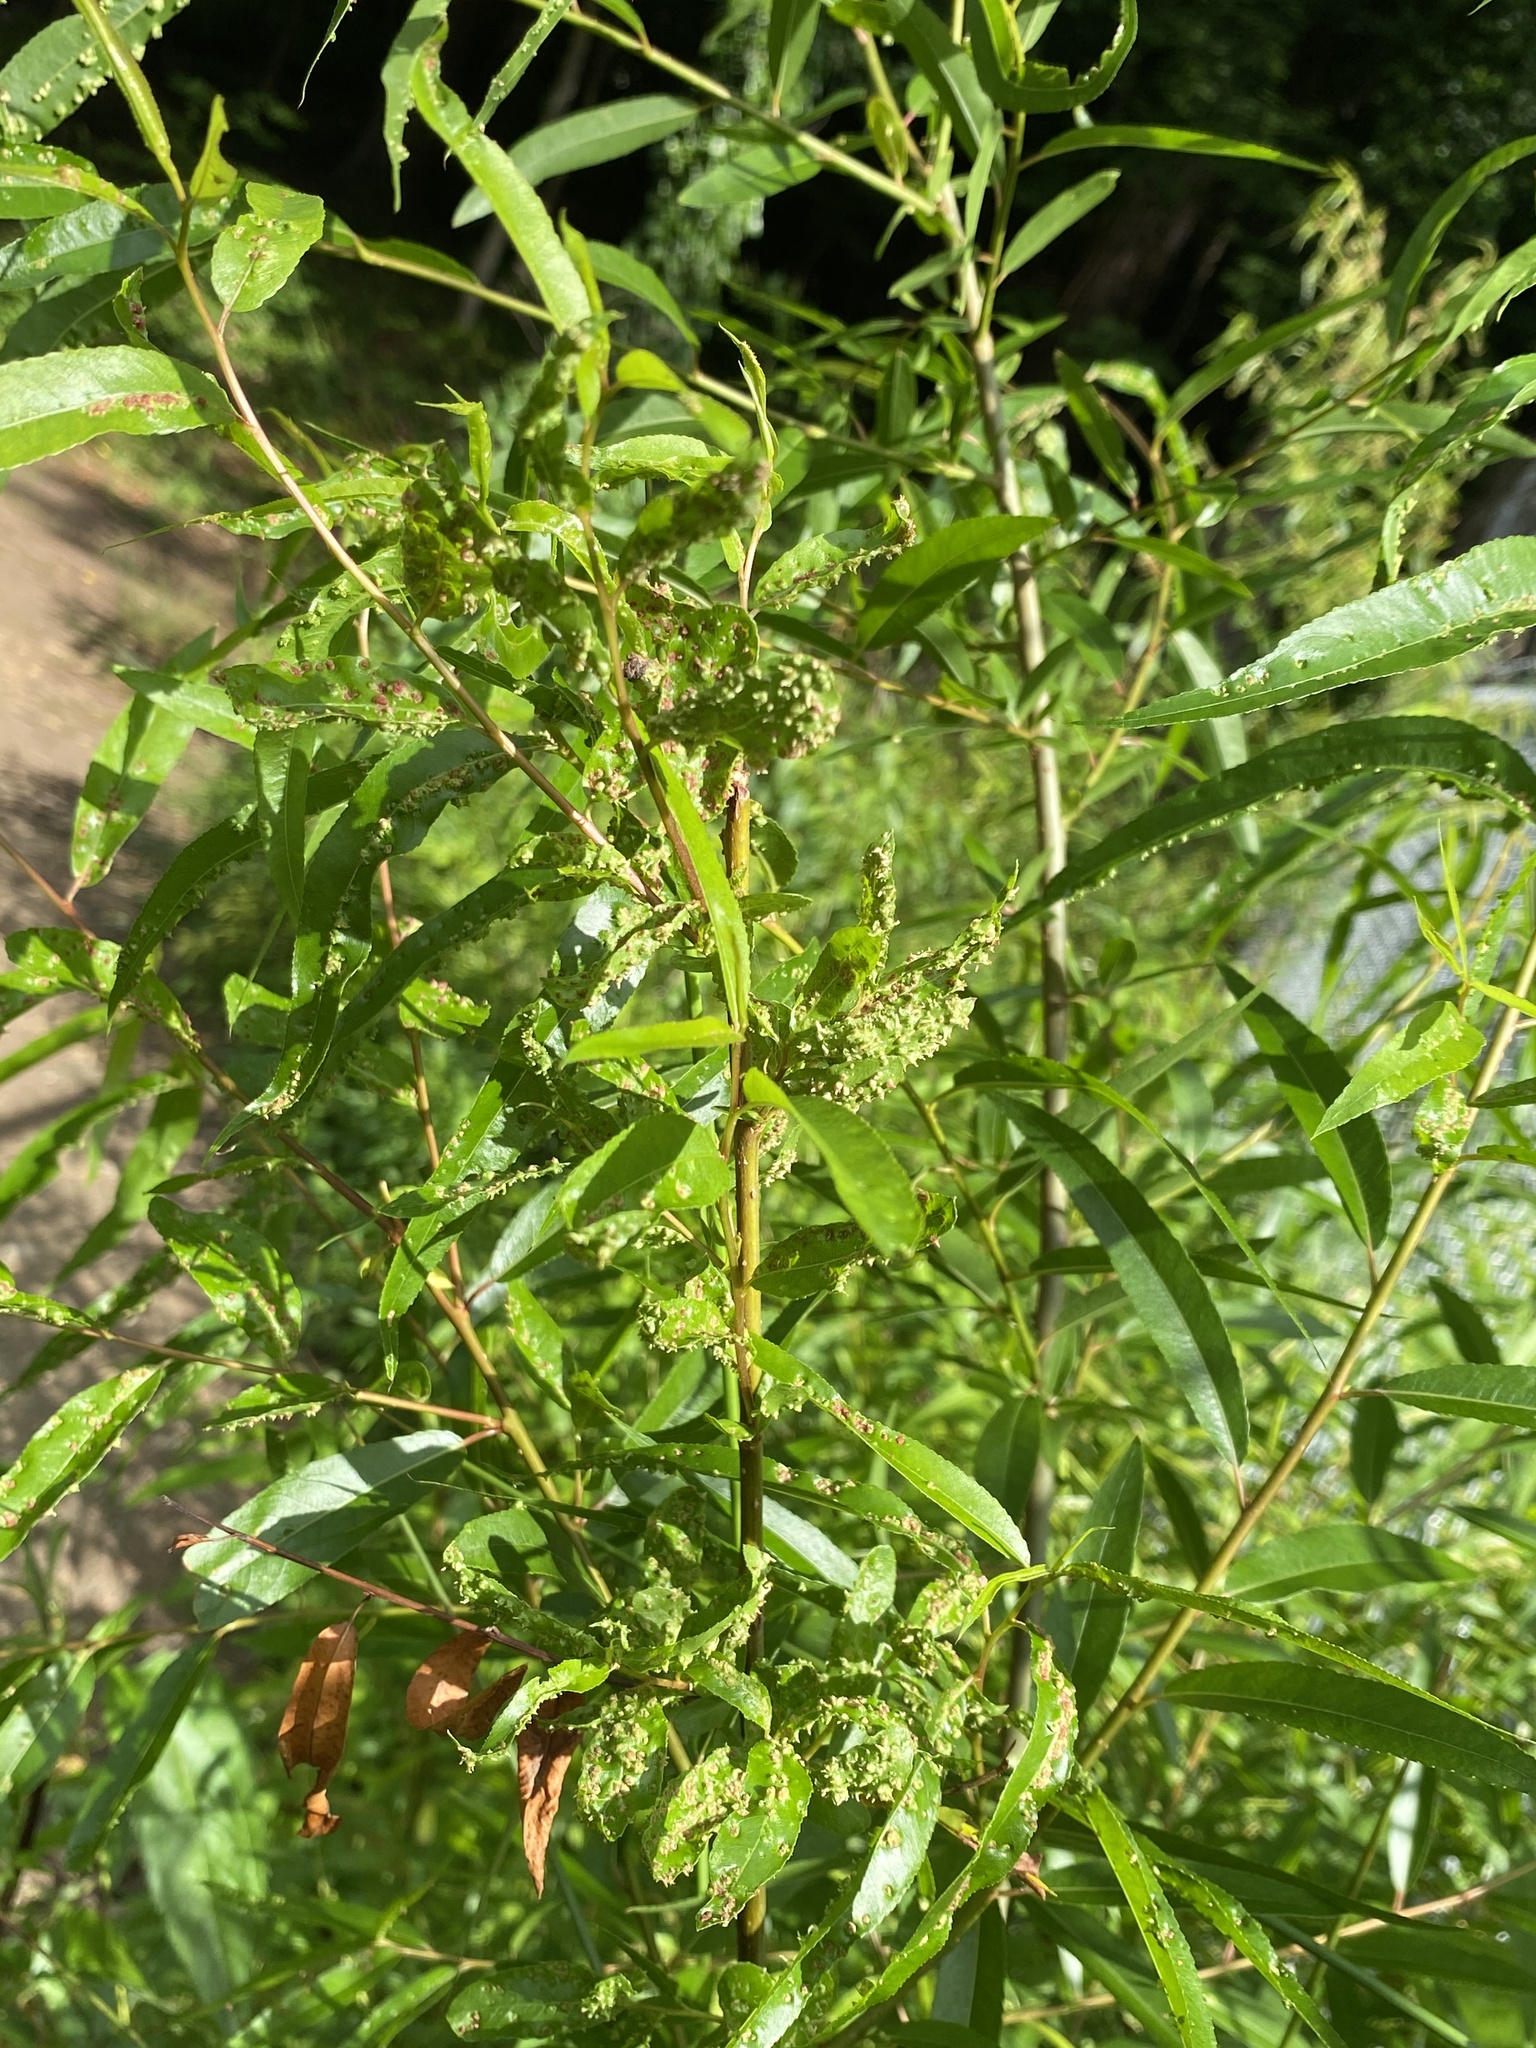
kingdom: Animalia
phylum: Arthropoda
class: Arachnida
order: Trombidiformes
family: Eriophyidae
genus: Aculus
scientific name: Aculus tetanothrix
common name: Willow bead gall mite
